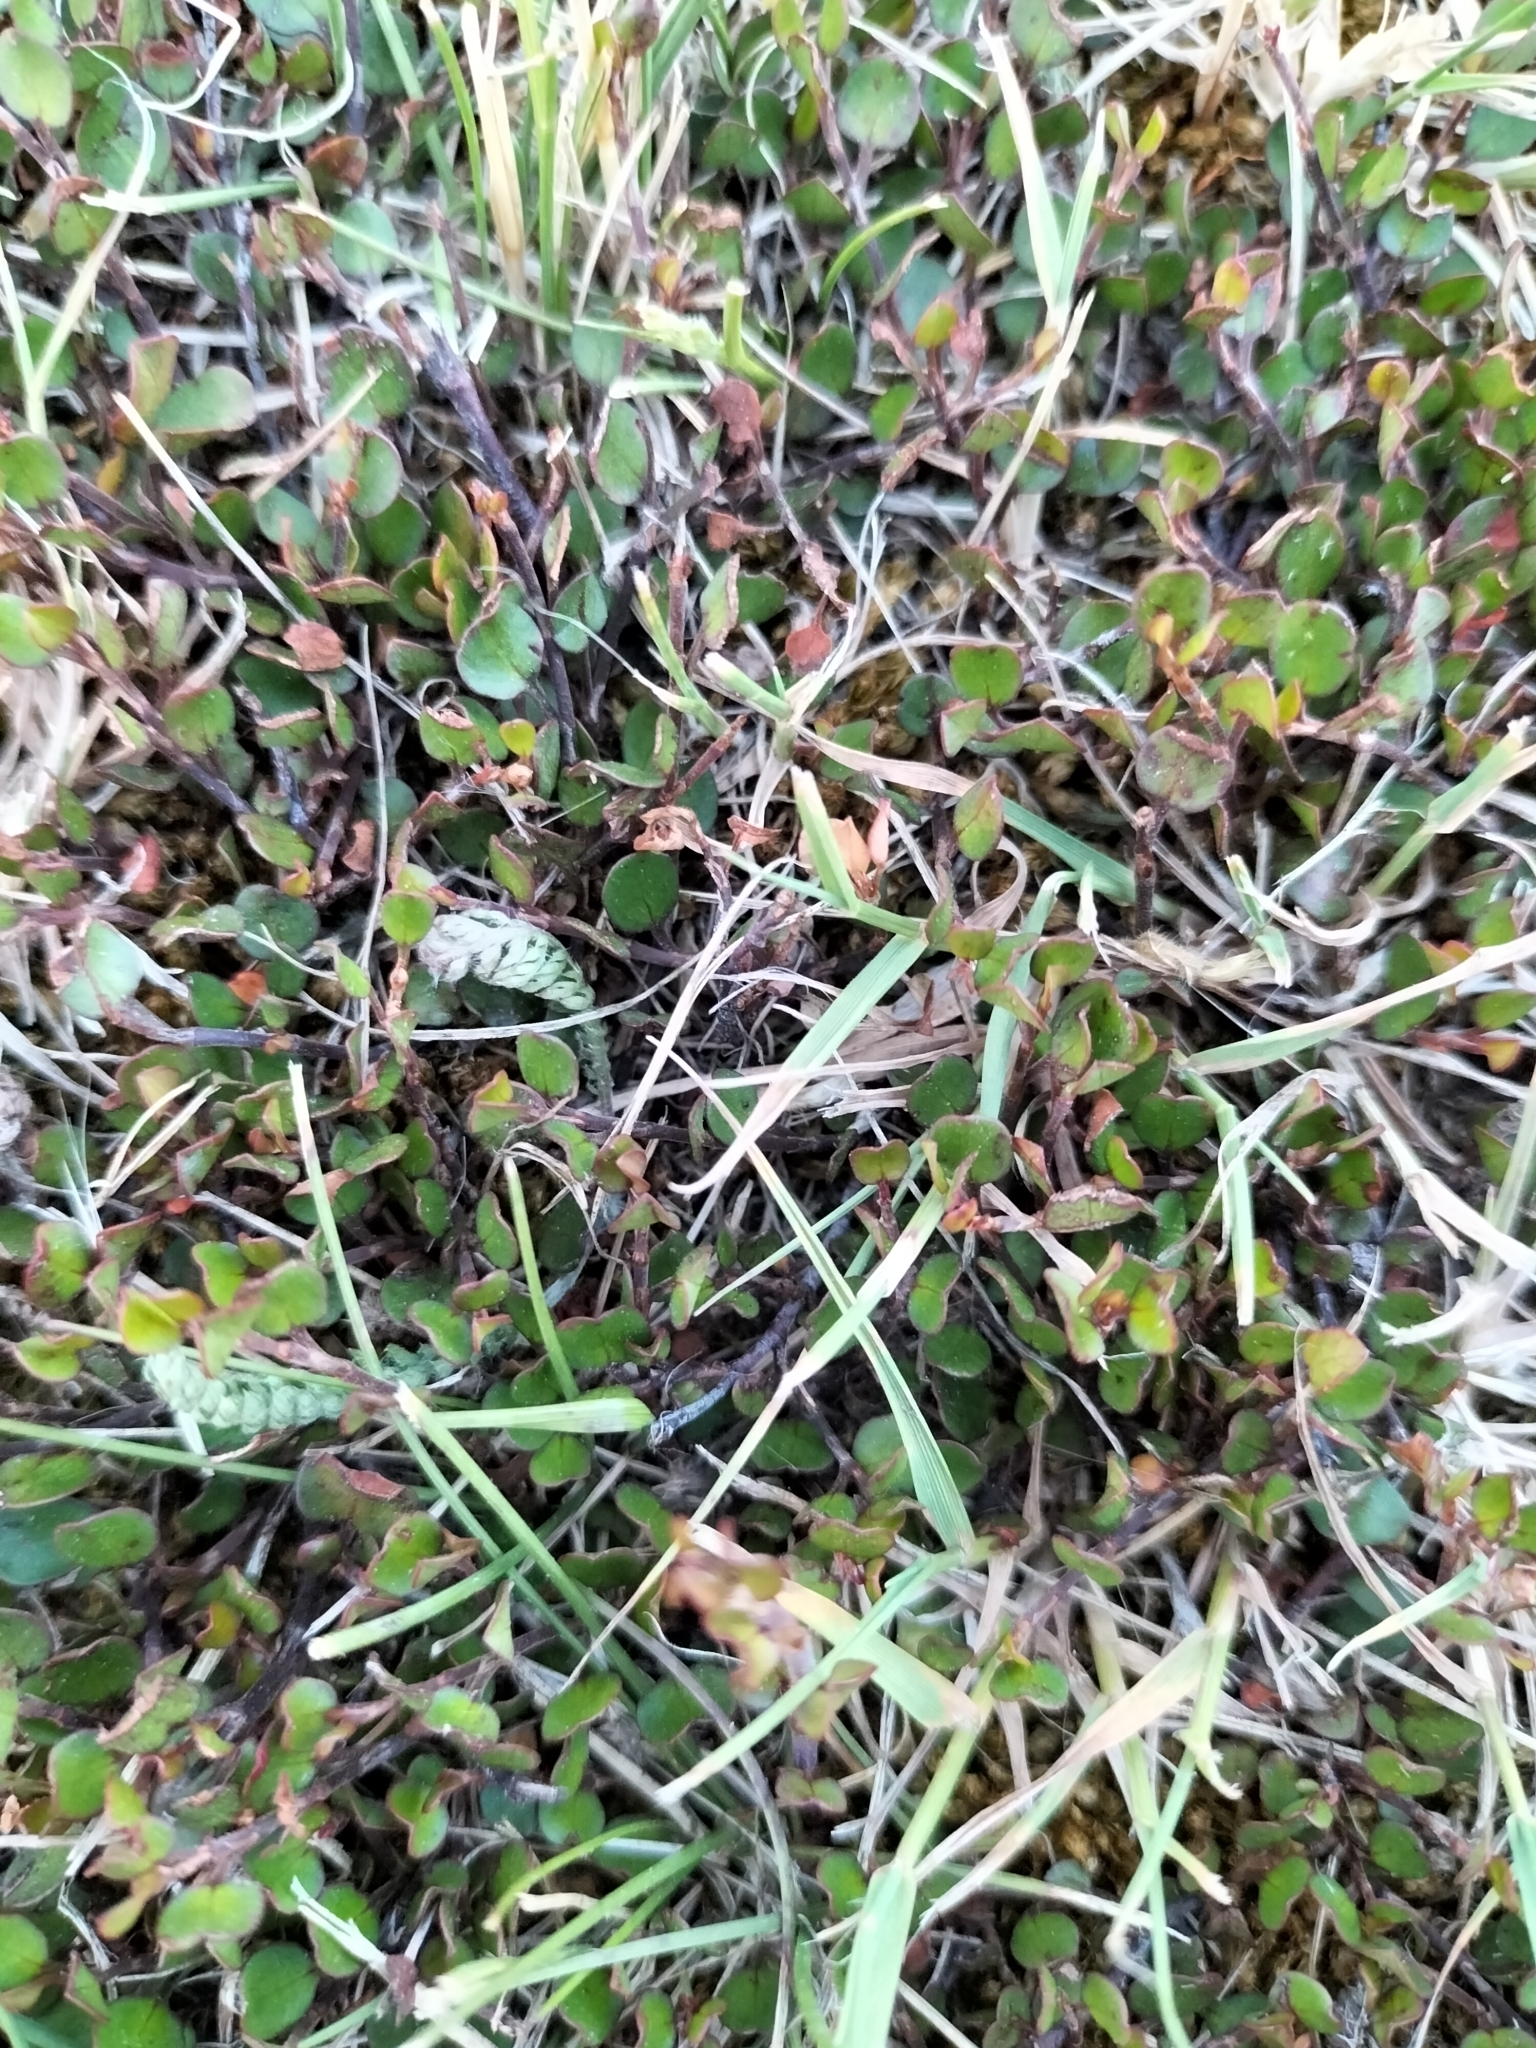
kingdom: Plantae
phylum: Tracheophyta
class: Magnoliopsida
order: Caryophyllales
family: Polygonaceae
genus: Muehlenbeckia
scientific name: Muehlenbeckia axillaris
